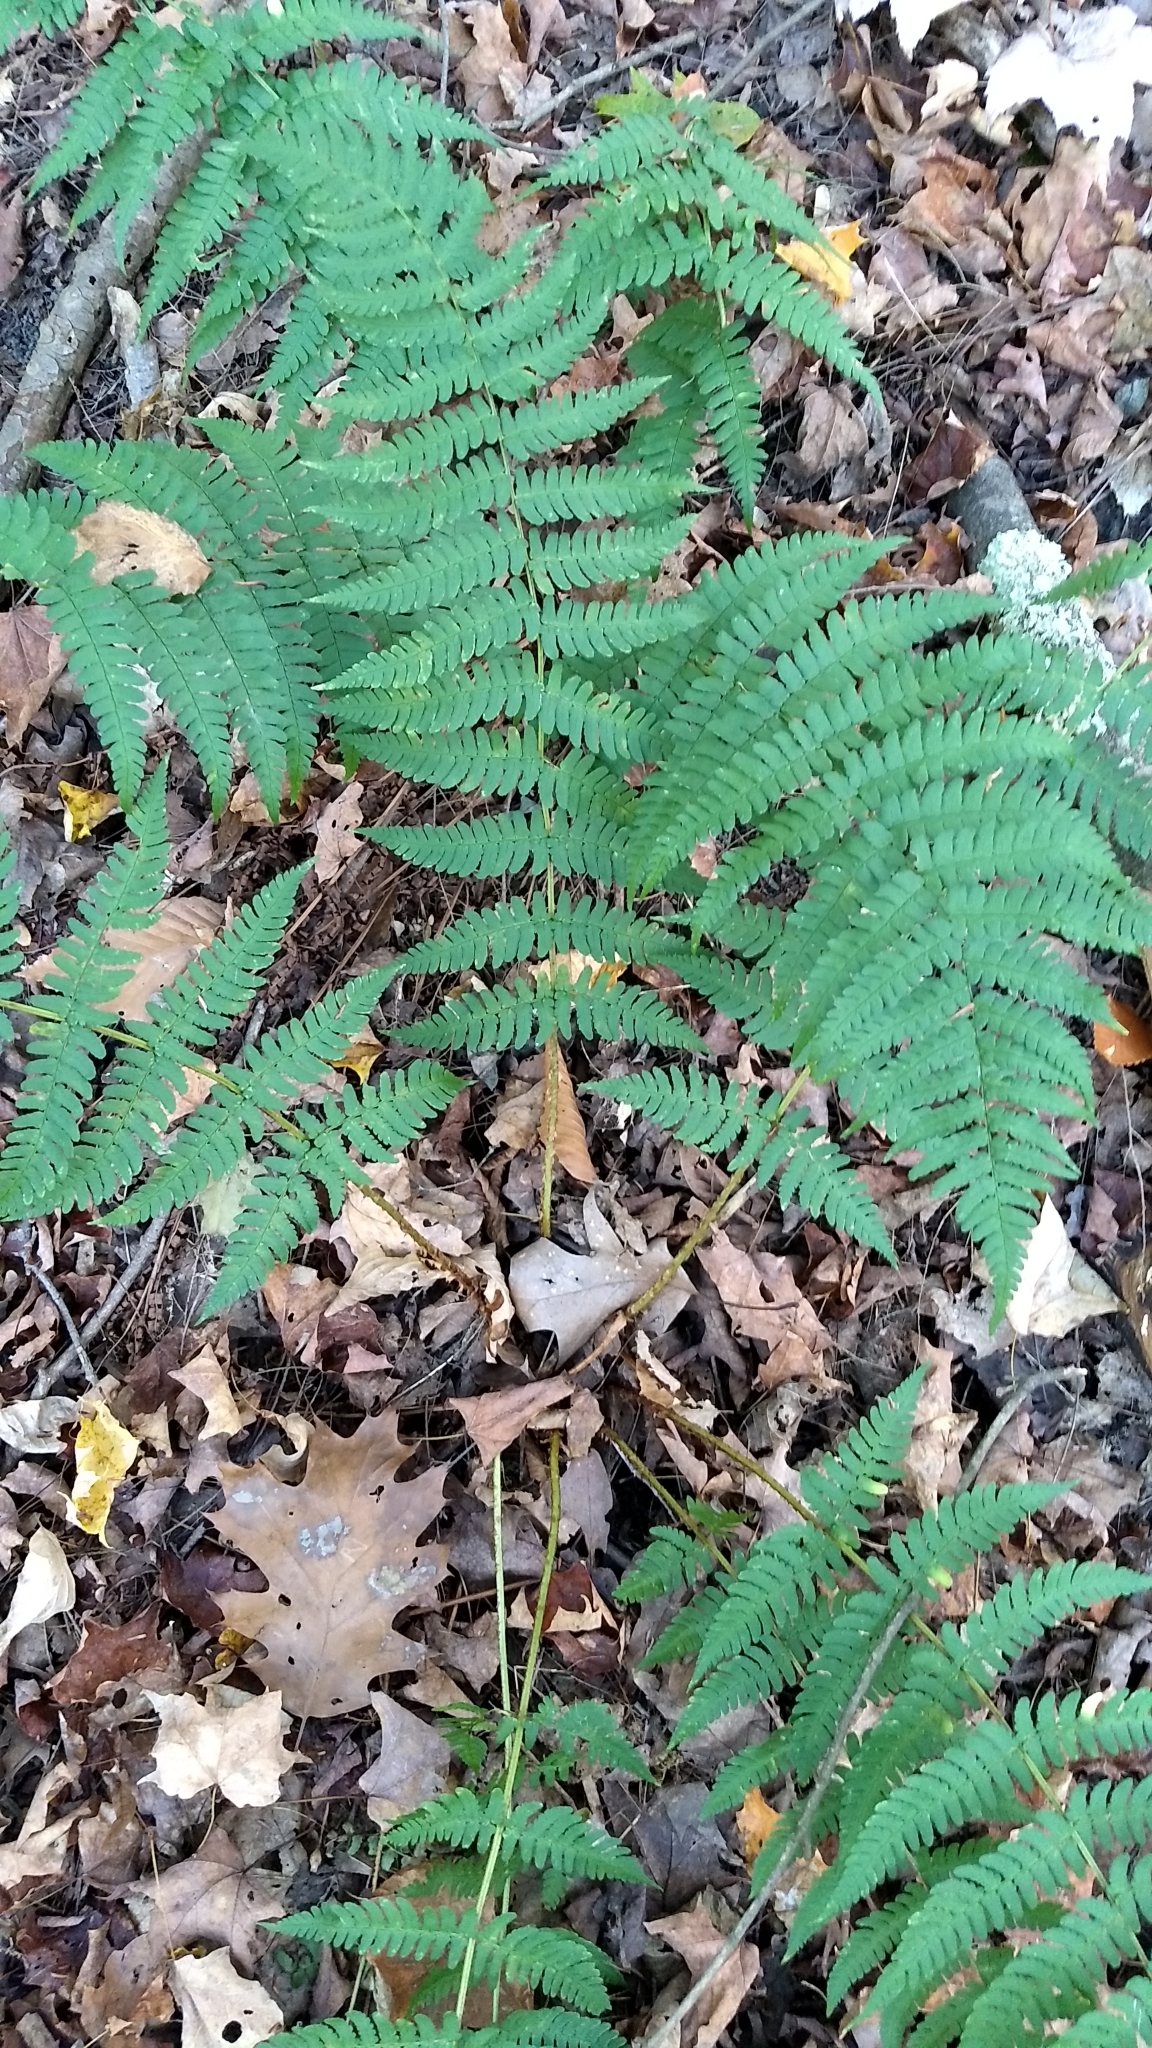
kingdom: Plantae
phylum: Tracheophyta
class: Polypodiopsida
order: Polypodiales
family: Dryopteridaceae
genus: Dryopteris
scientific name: Dryopteris marginalis
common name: Marginal wood fern
